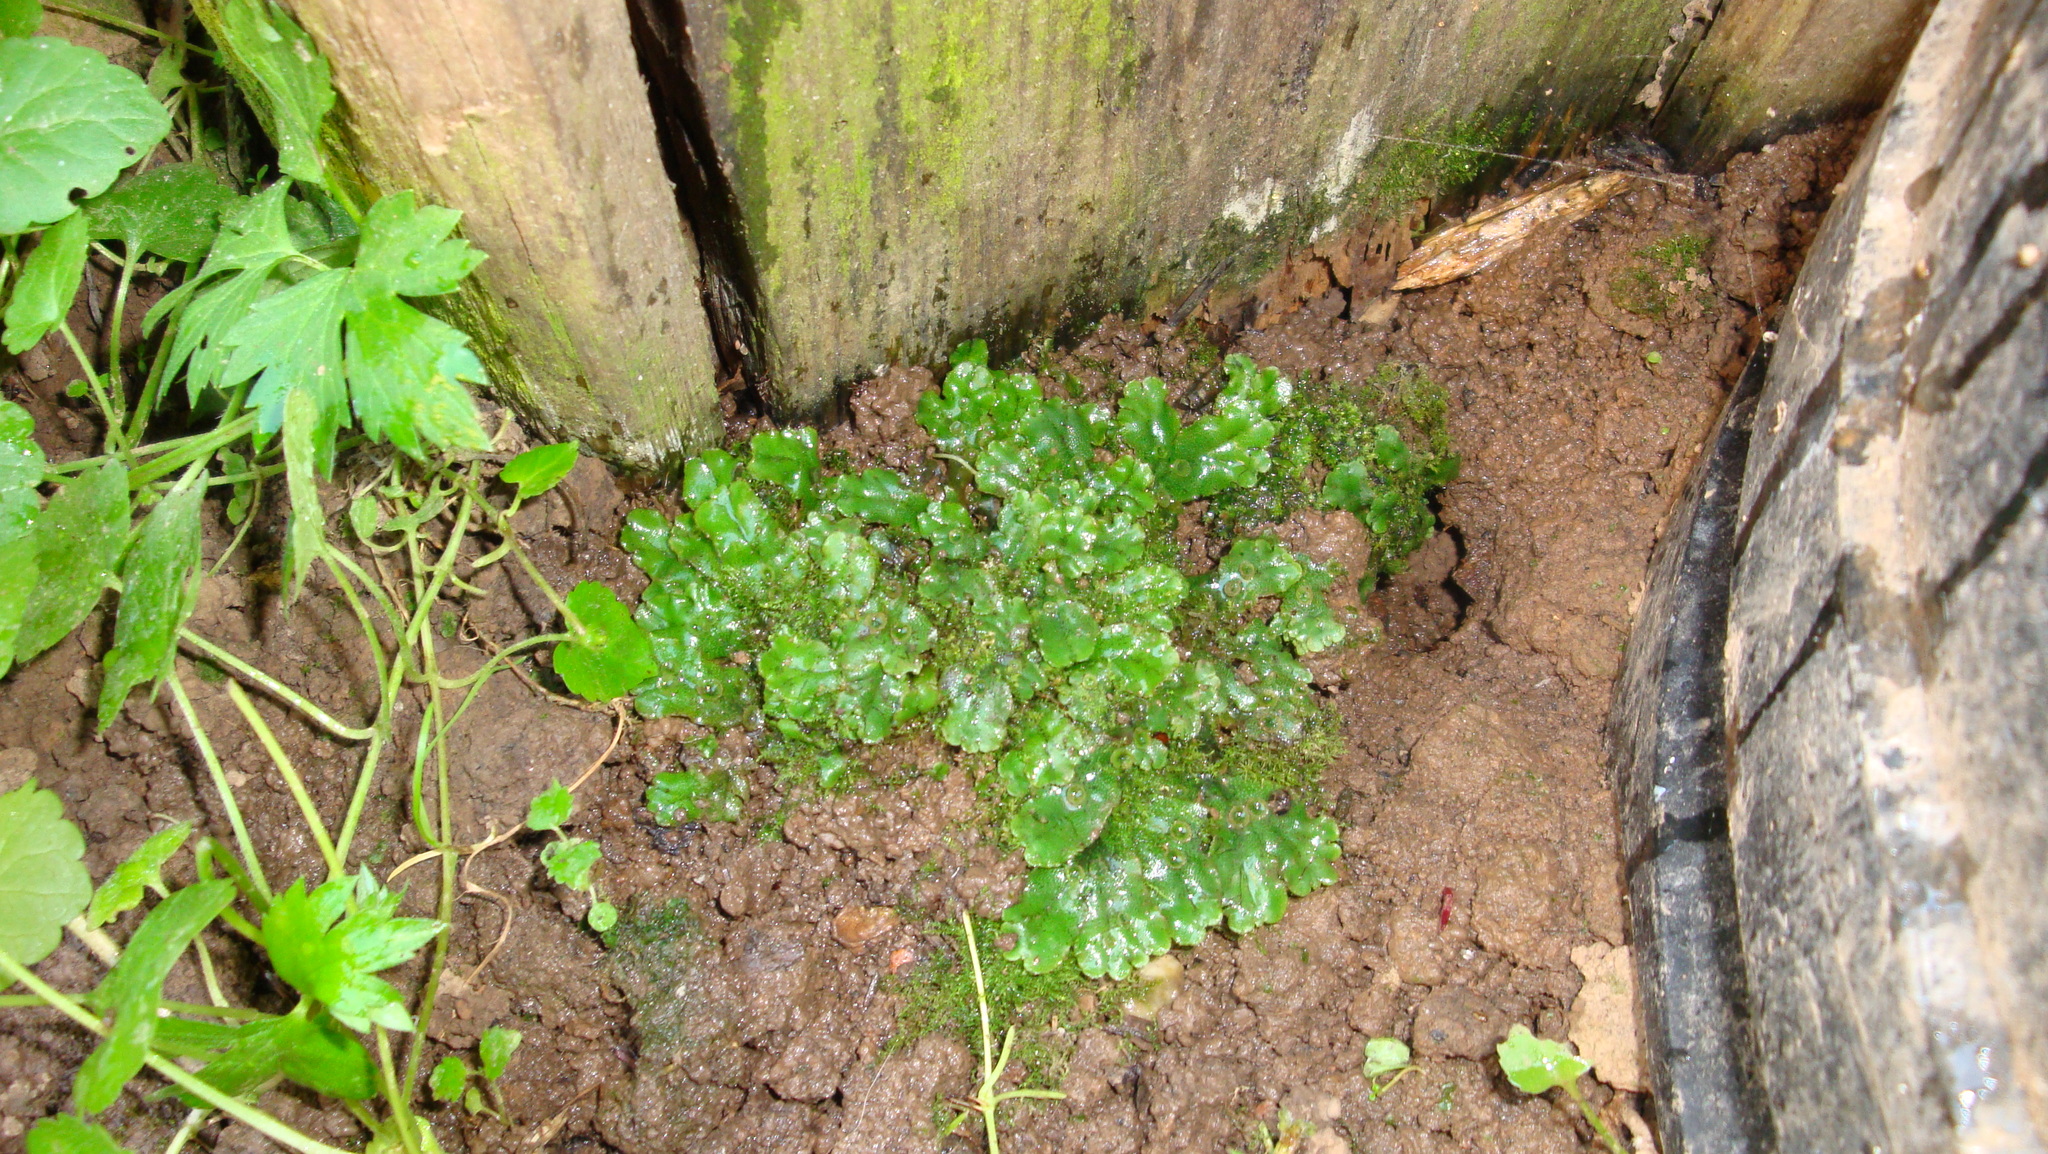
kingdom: Plantae
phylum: Marchantiophyta
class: Marchantiopsida
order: Marchantiales
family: Marchantiaceae
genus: Marchantia
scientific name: Marchantia polymorpha
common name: Common liverwort
